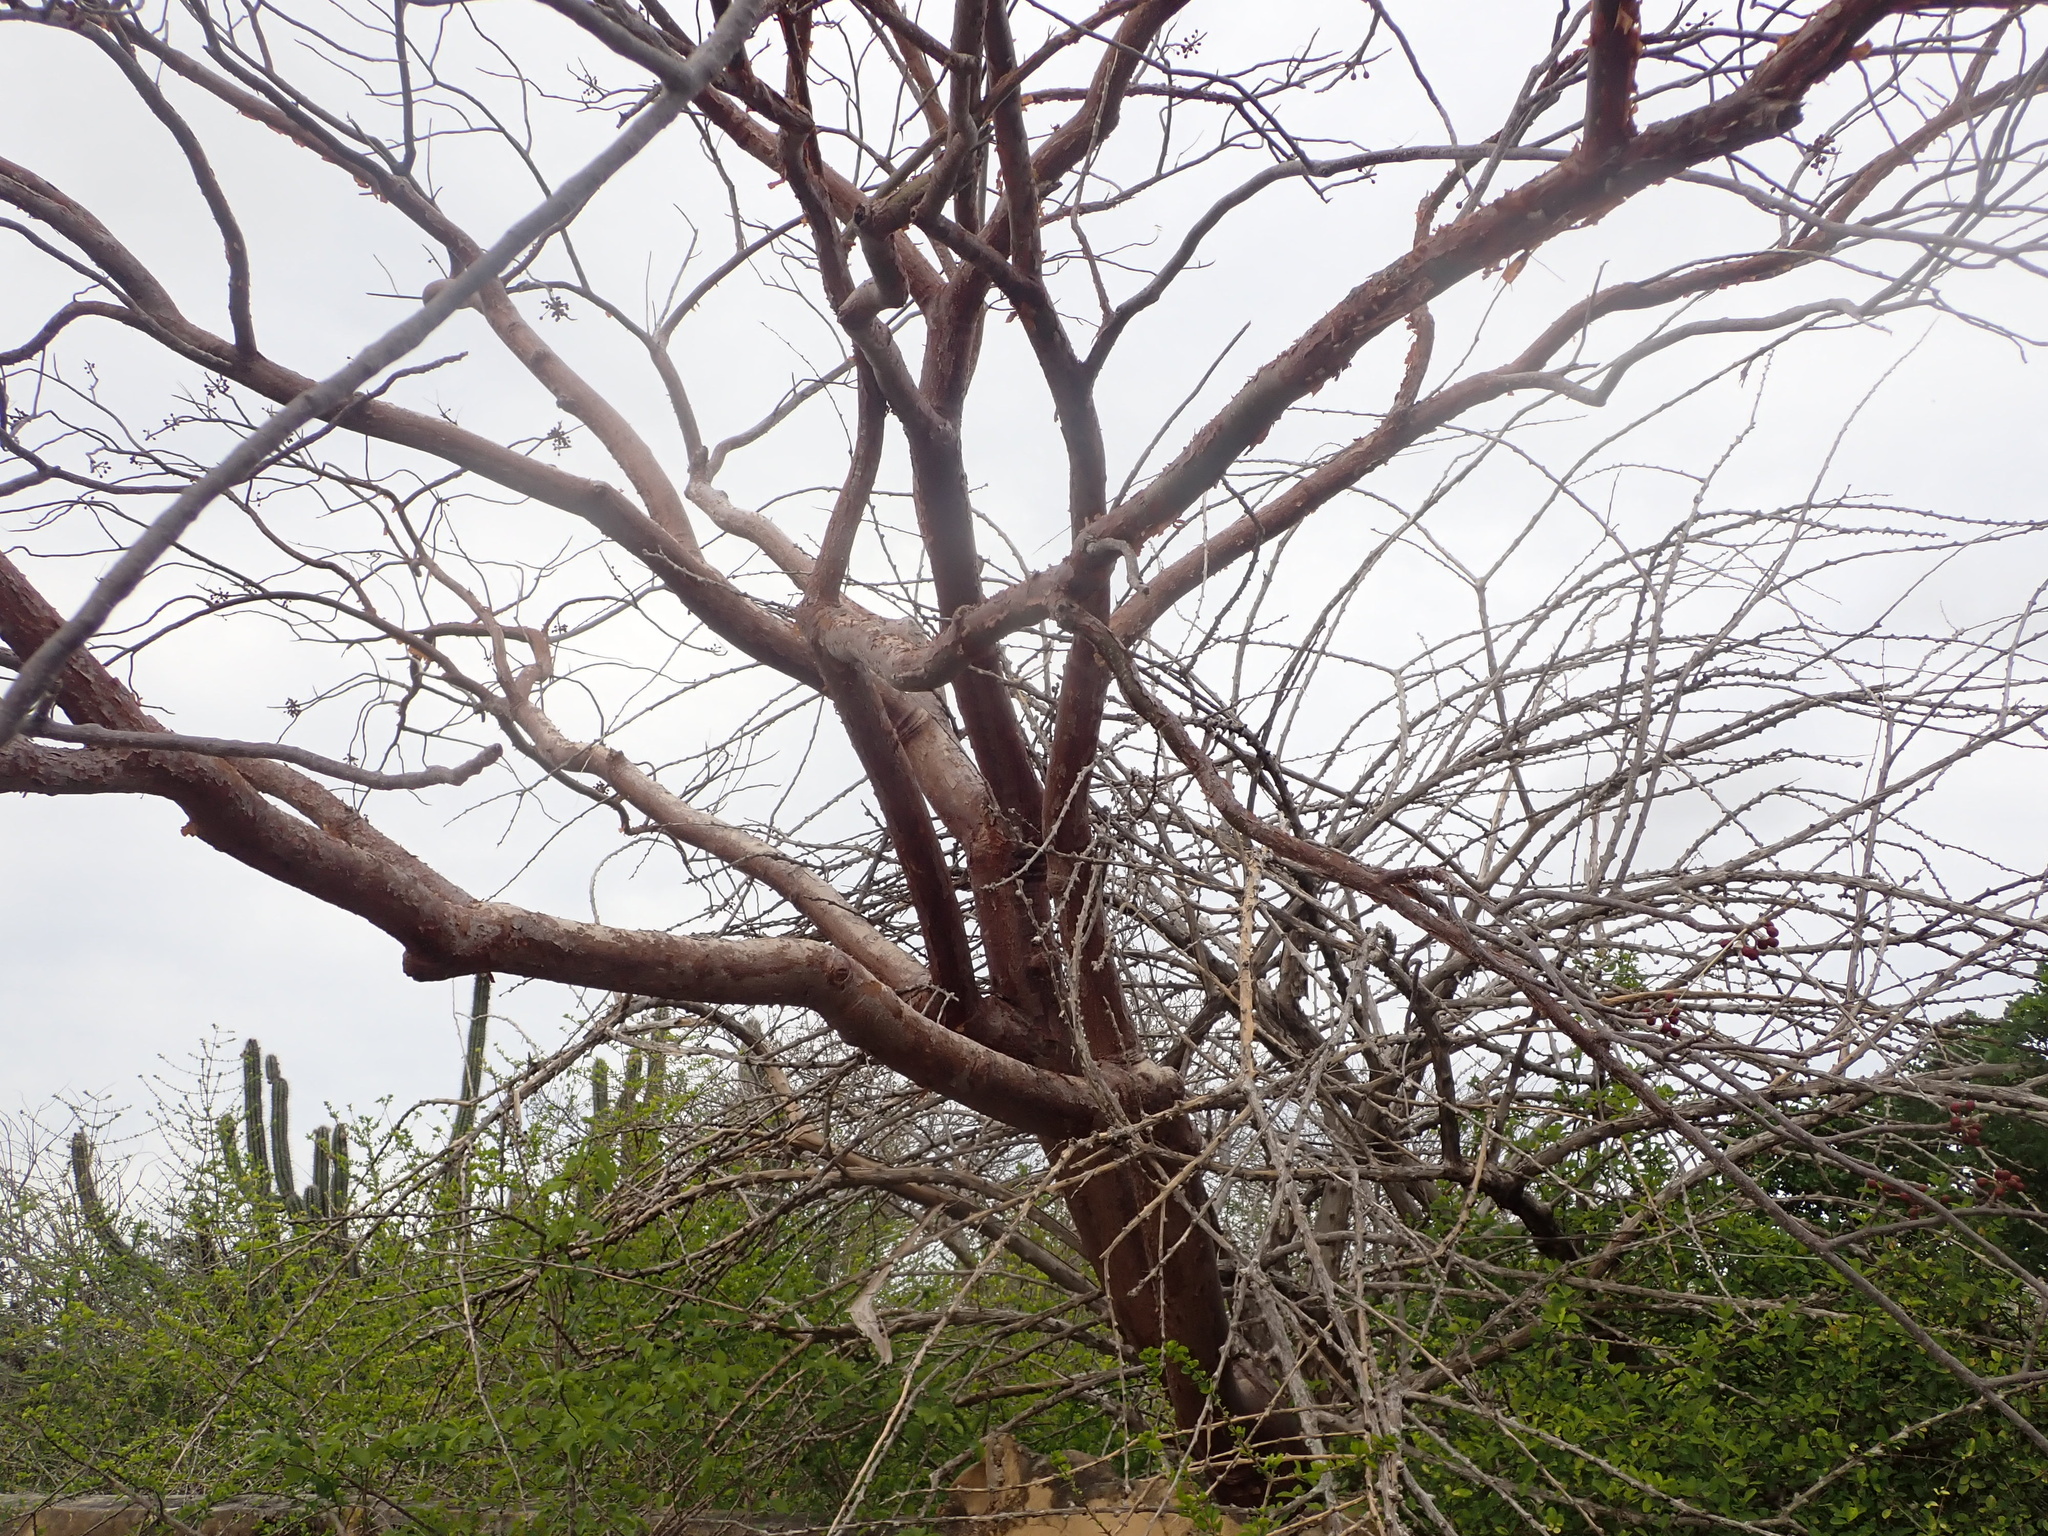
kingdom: Plantae
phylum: Tracheophyta
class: Magnoliopsida
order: Sapindales
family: Burseraceae
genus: Bursera
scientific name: Bursera simaruba
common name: Turpentine tree
